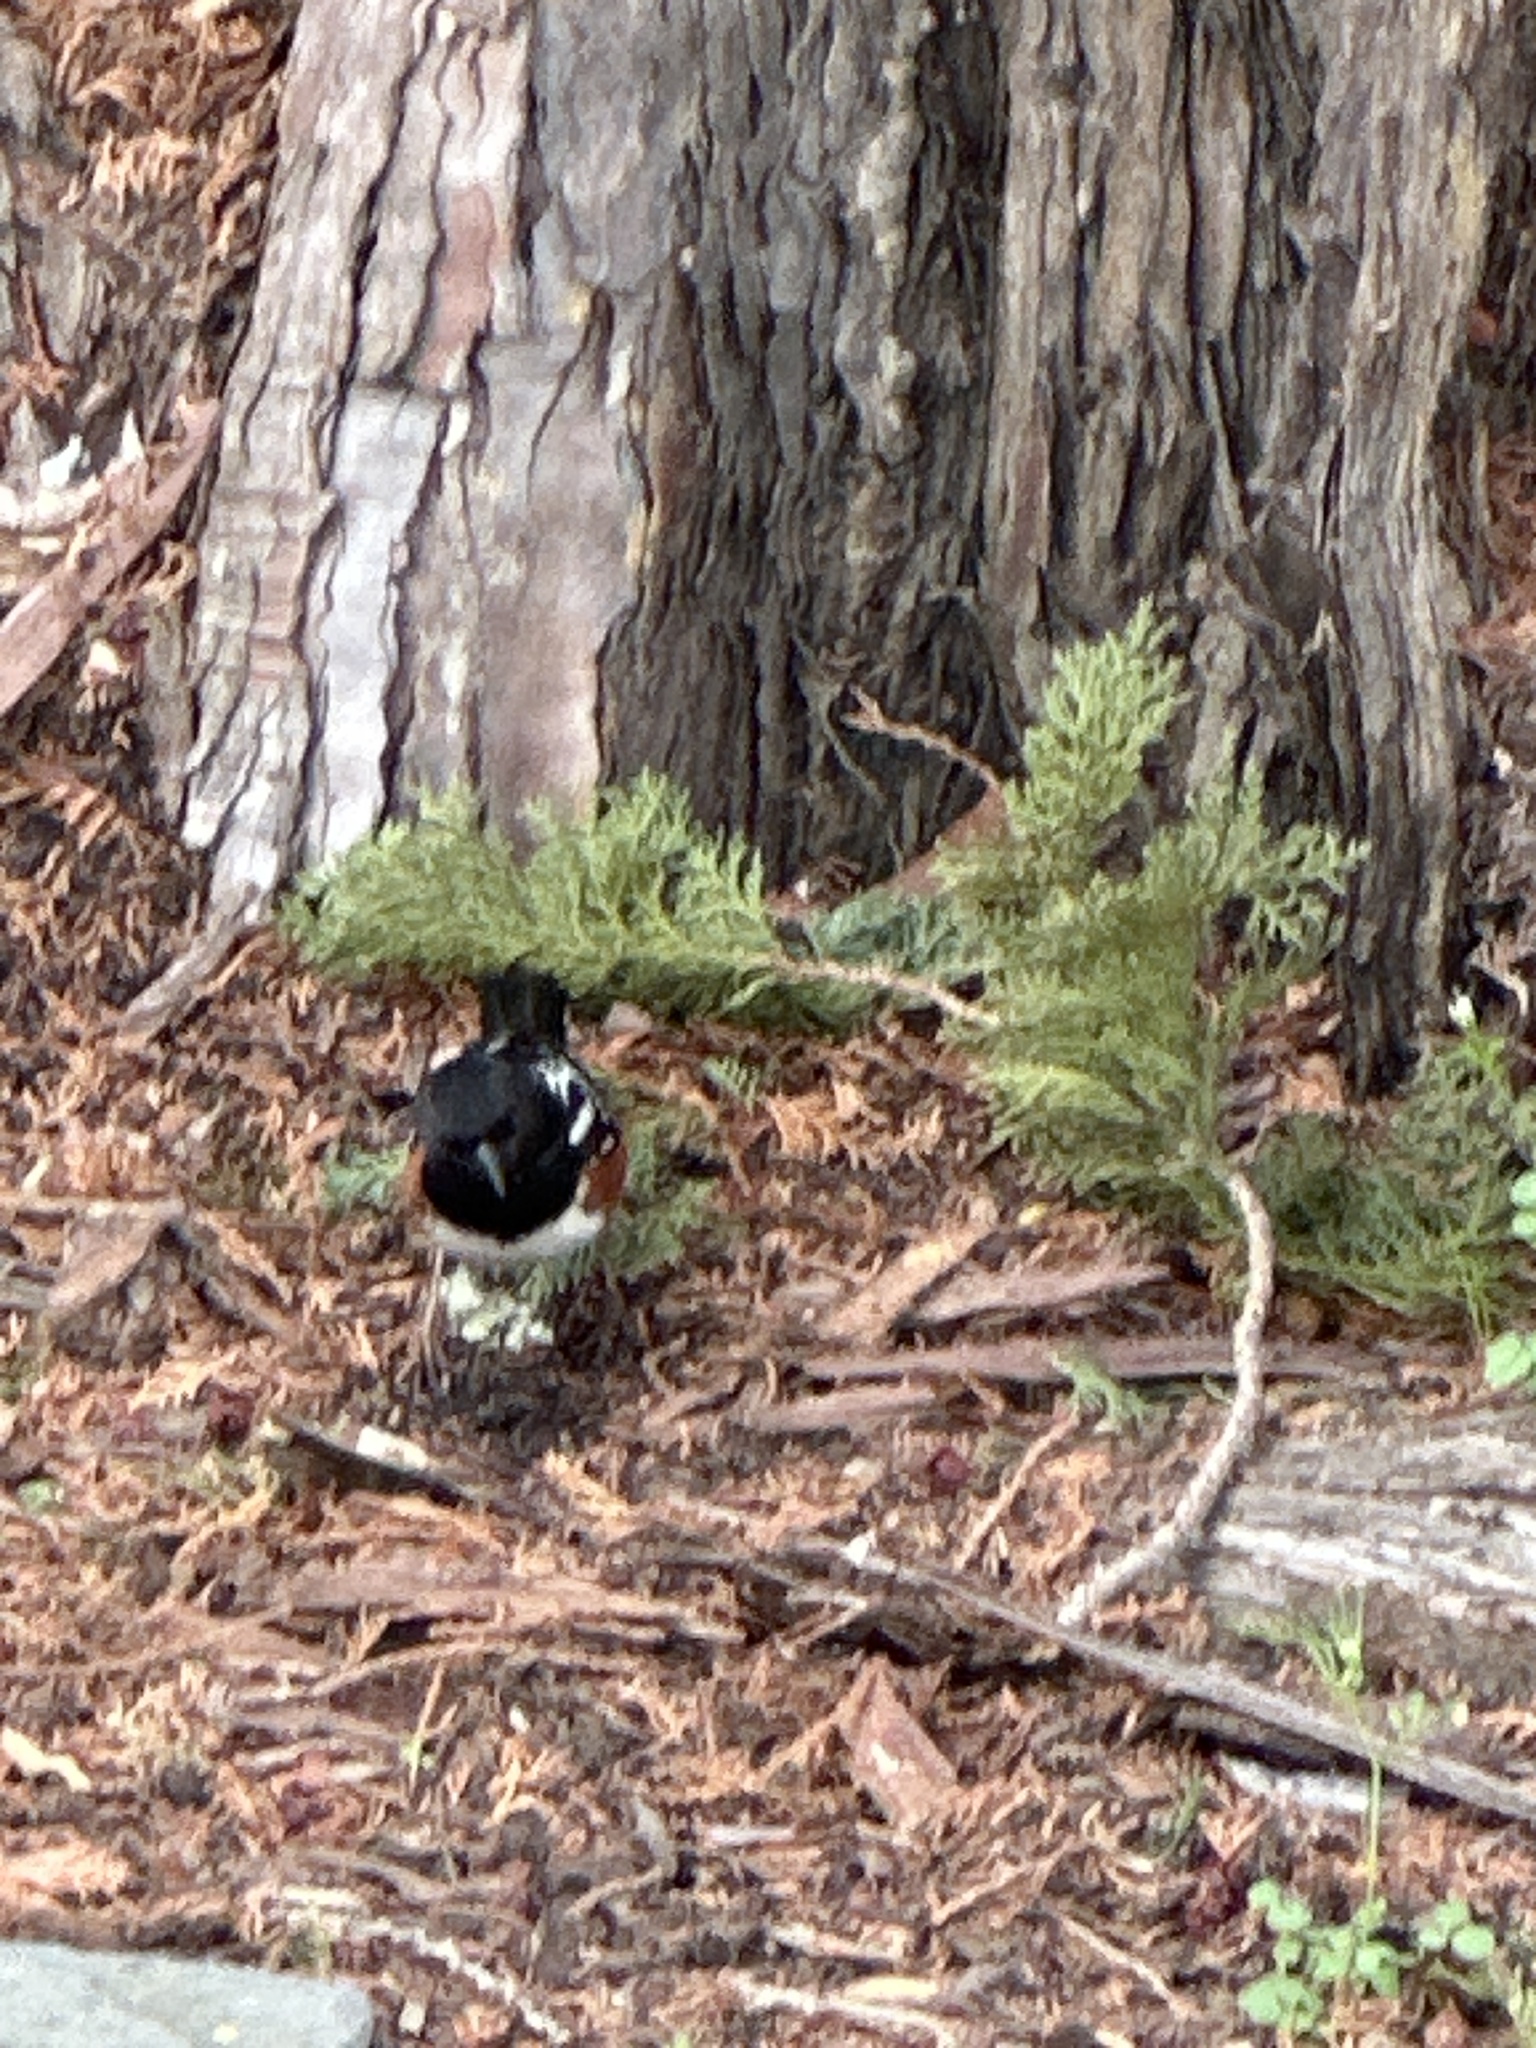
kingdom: Animalia
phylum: Chordata
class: Aves
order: Passeriformes
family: Passerellidae
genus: Pipilo
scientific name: Pipilo maculatus
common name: Spotted towhee
